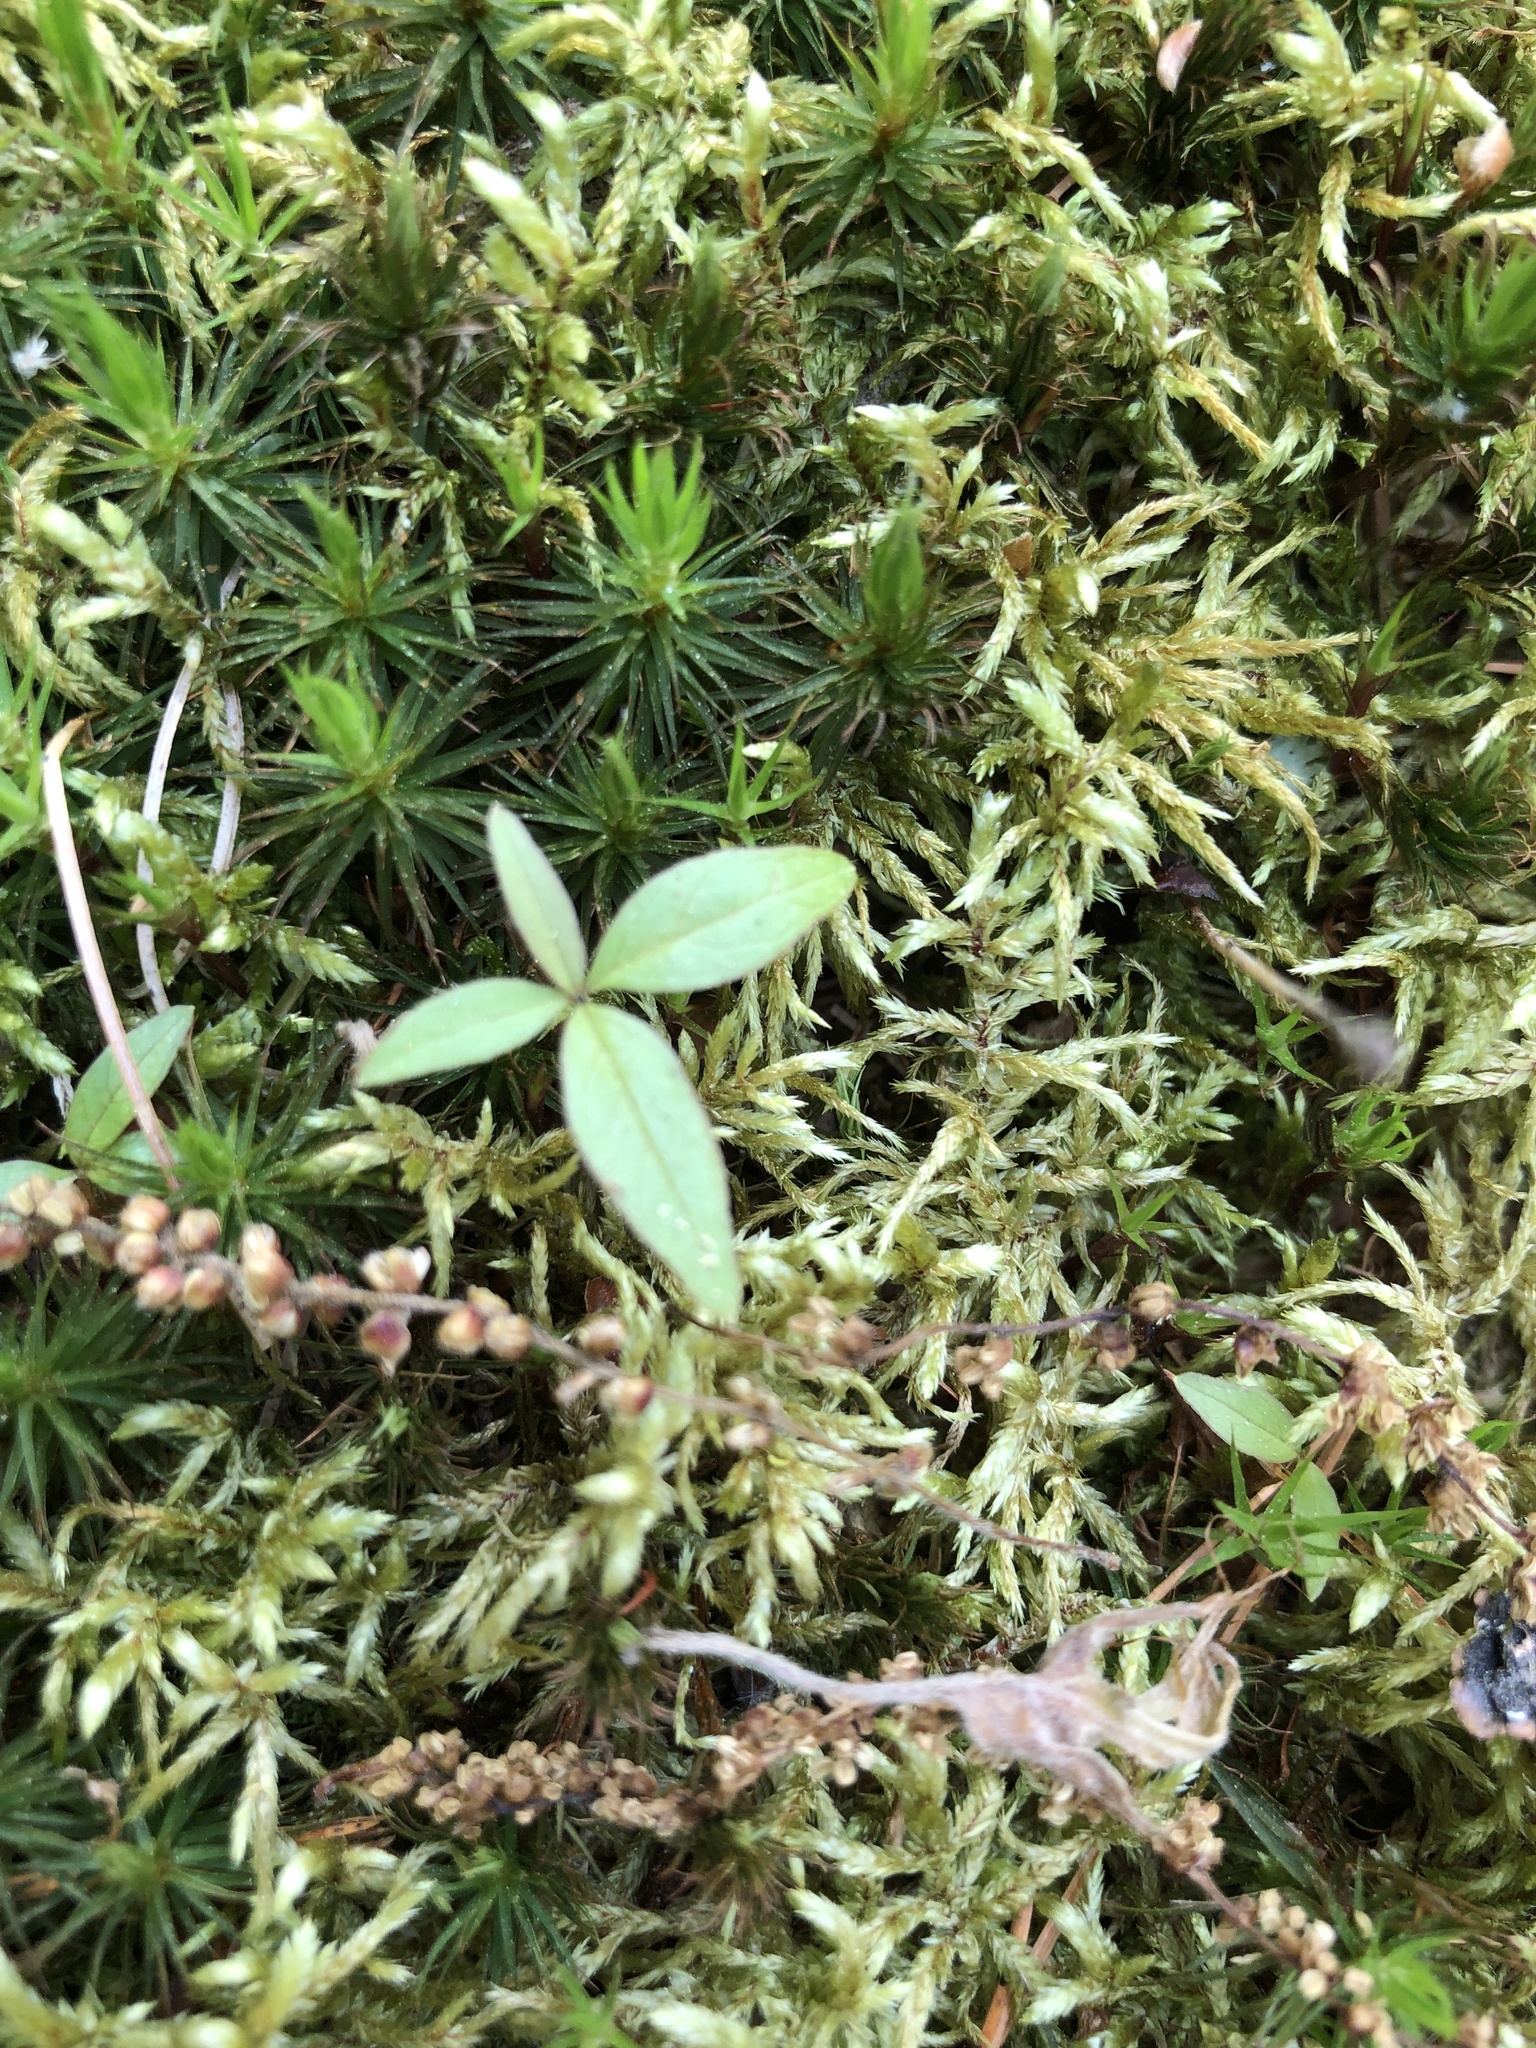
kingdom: Plantae
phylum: Tracheophyta
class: Magnoliopsida
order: Ericales
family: Primulaceae
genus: Lysimachia
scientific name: Lysimachia borealis
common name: American starflower
